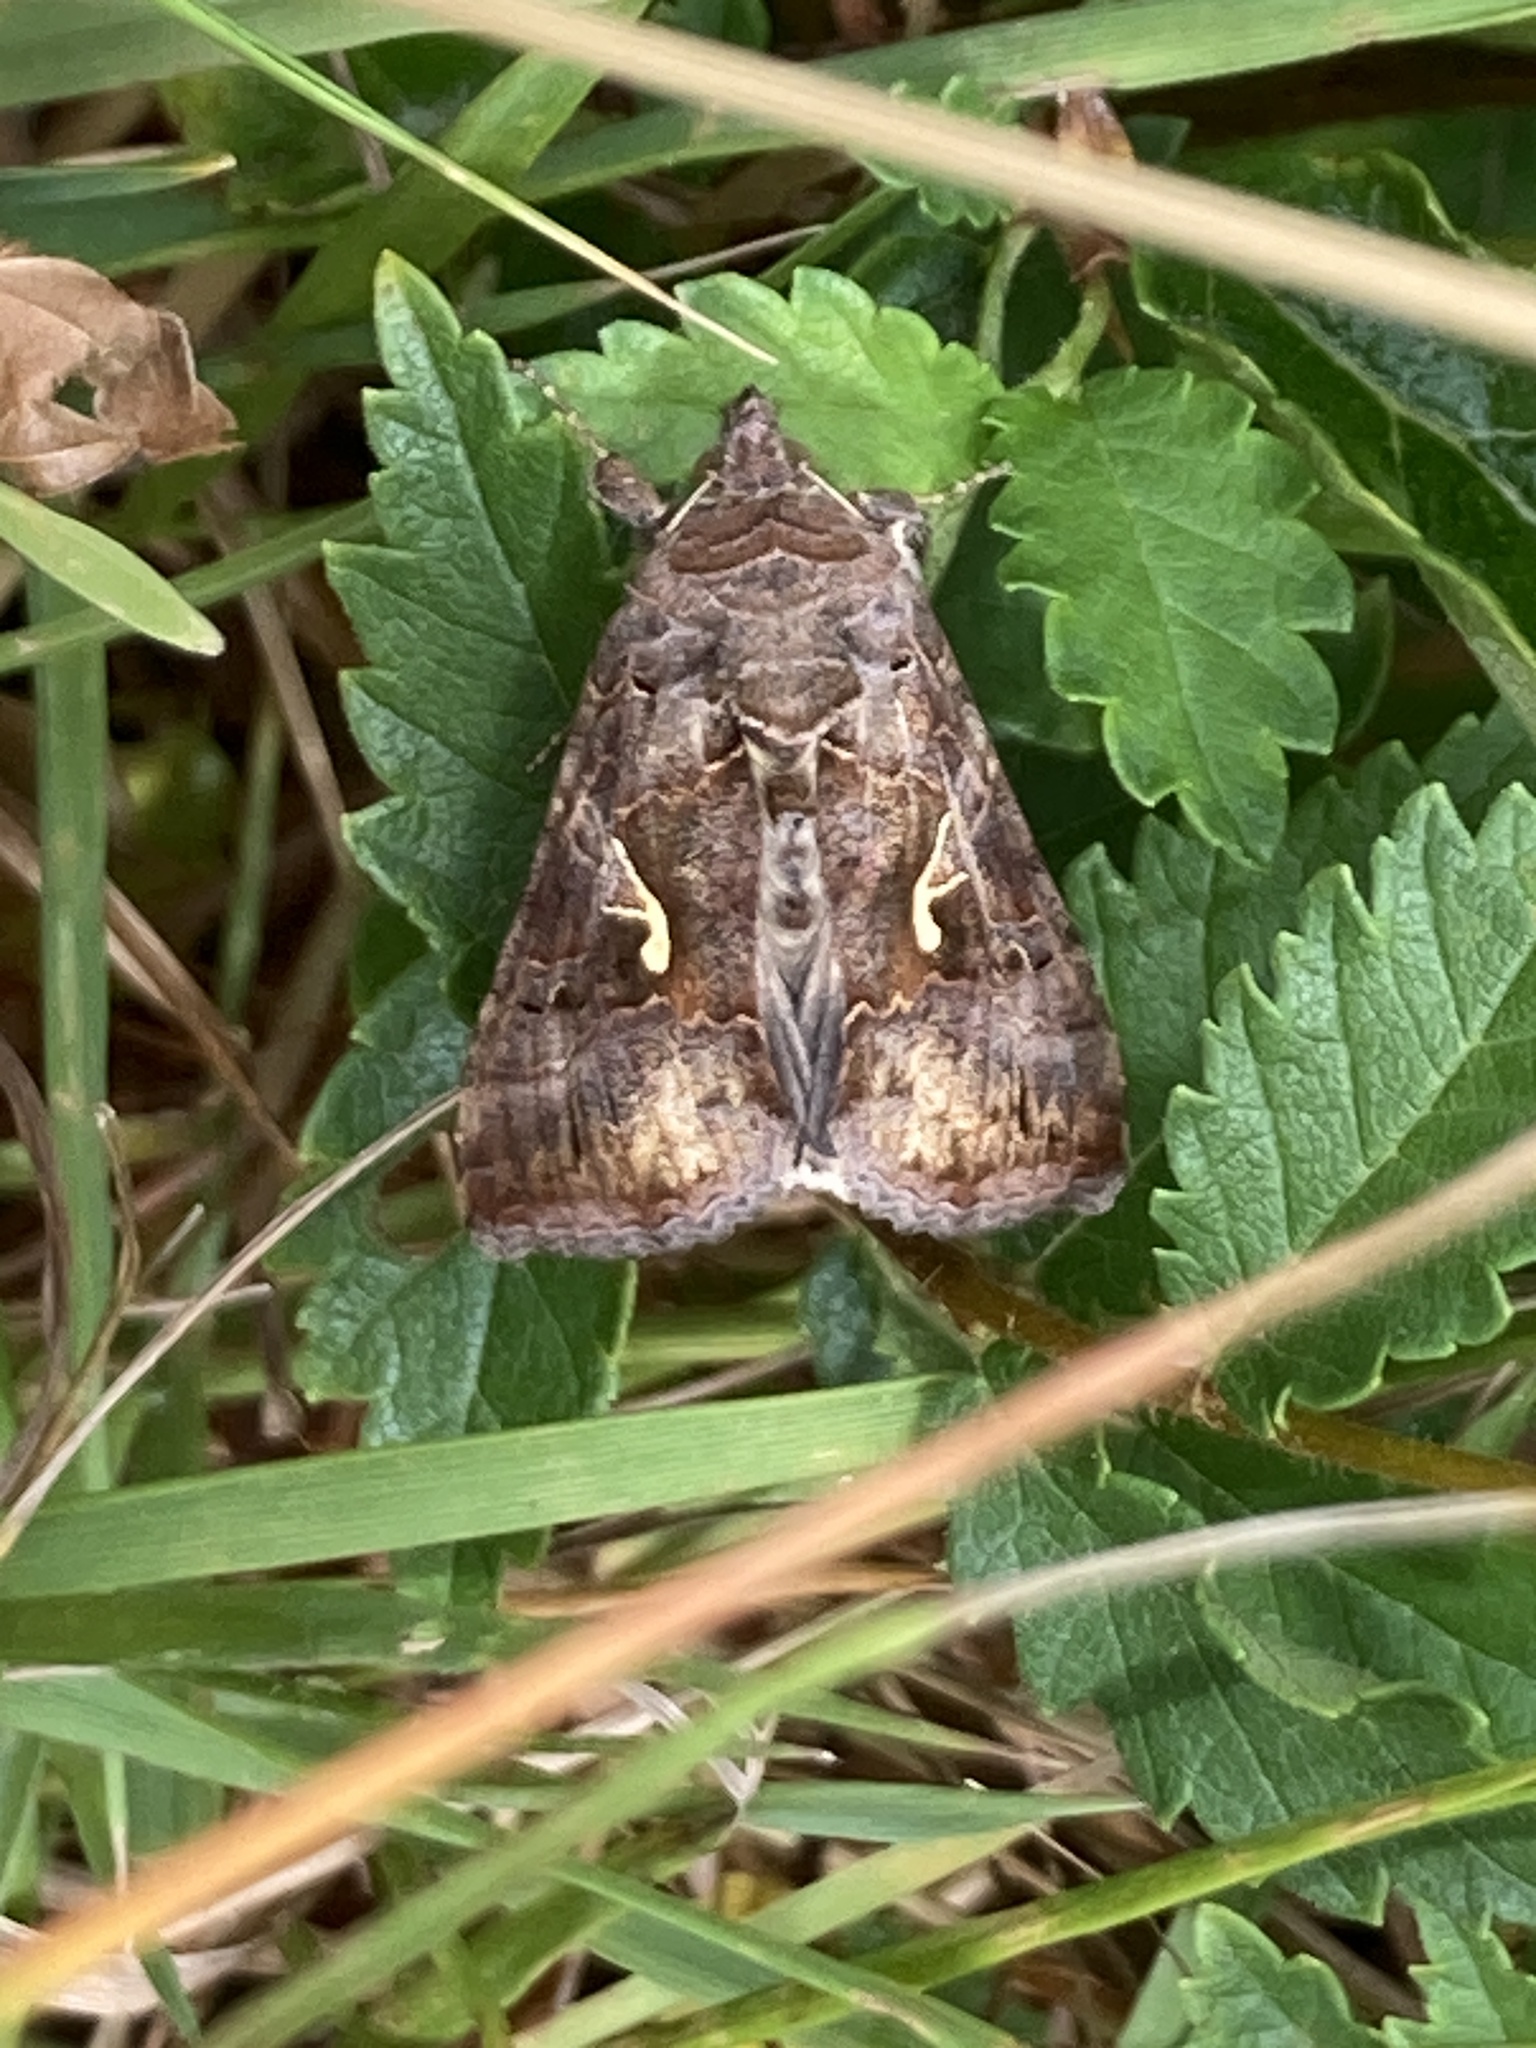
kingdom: Animalia
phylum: Arthropoda
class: Insecta
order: Lepidoptera
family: Noctuidae
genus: Autographa
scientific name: Autographa gamma
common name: Silver y
